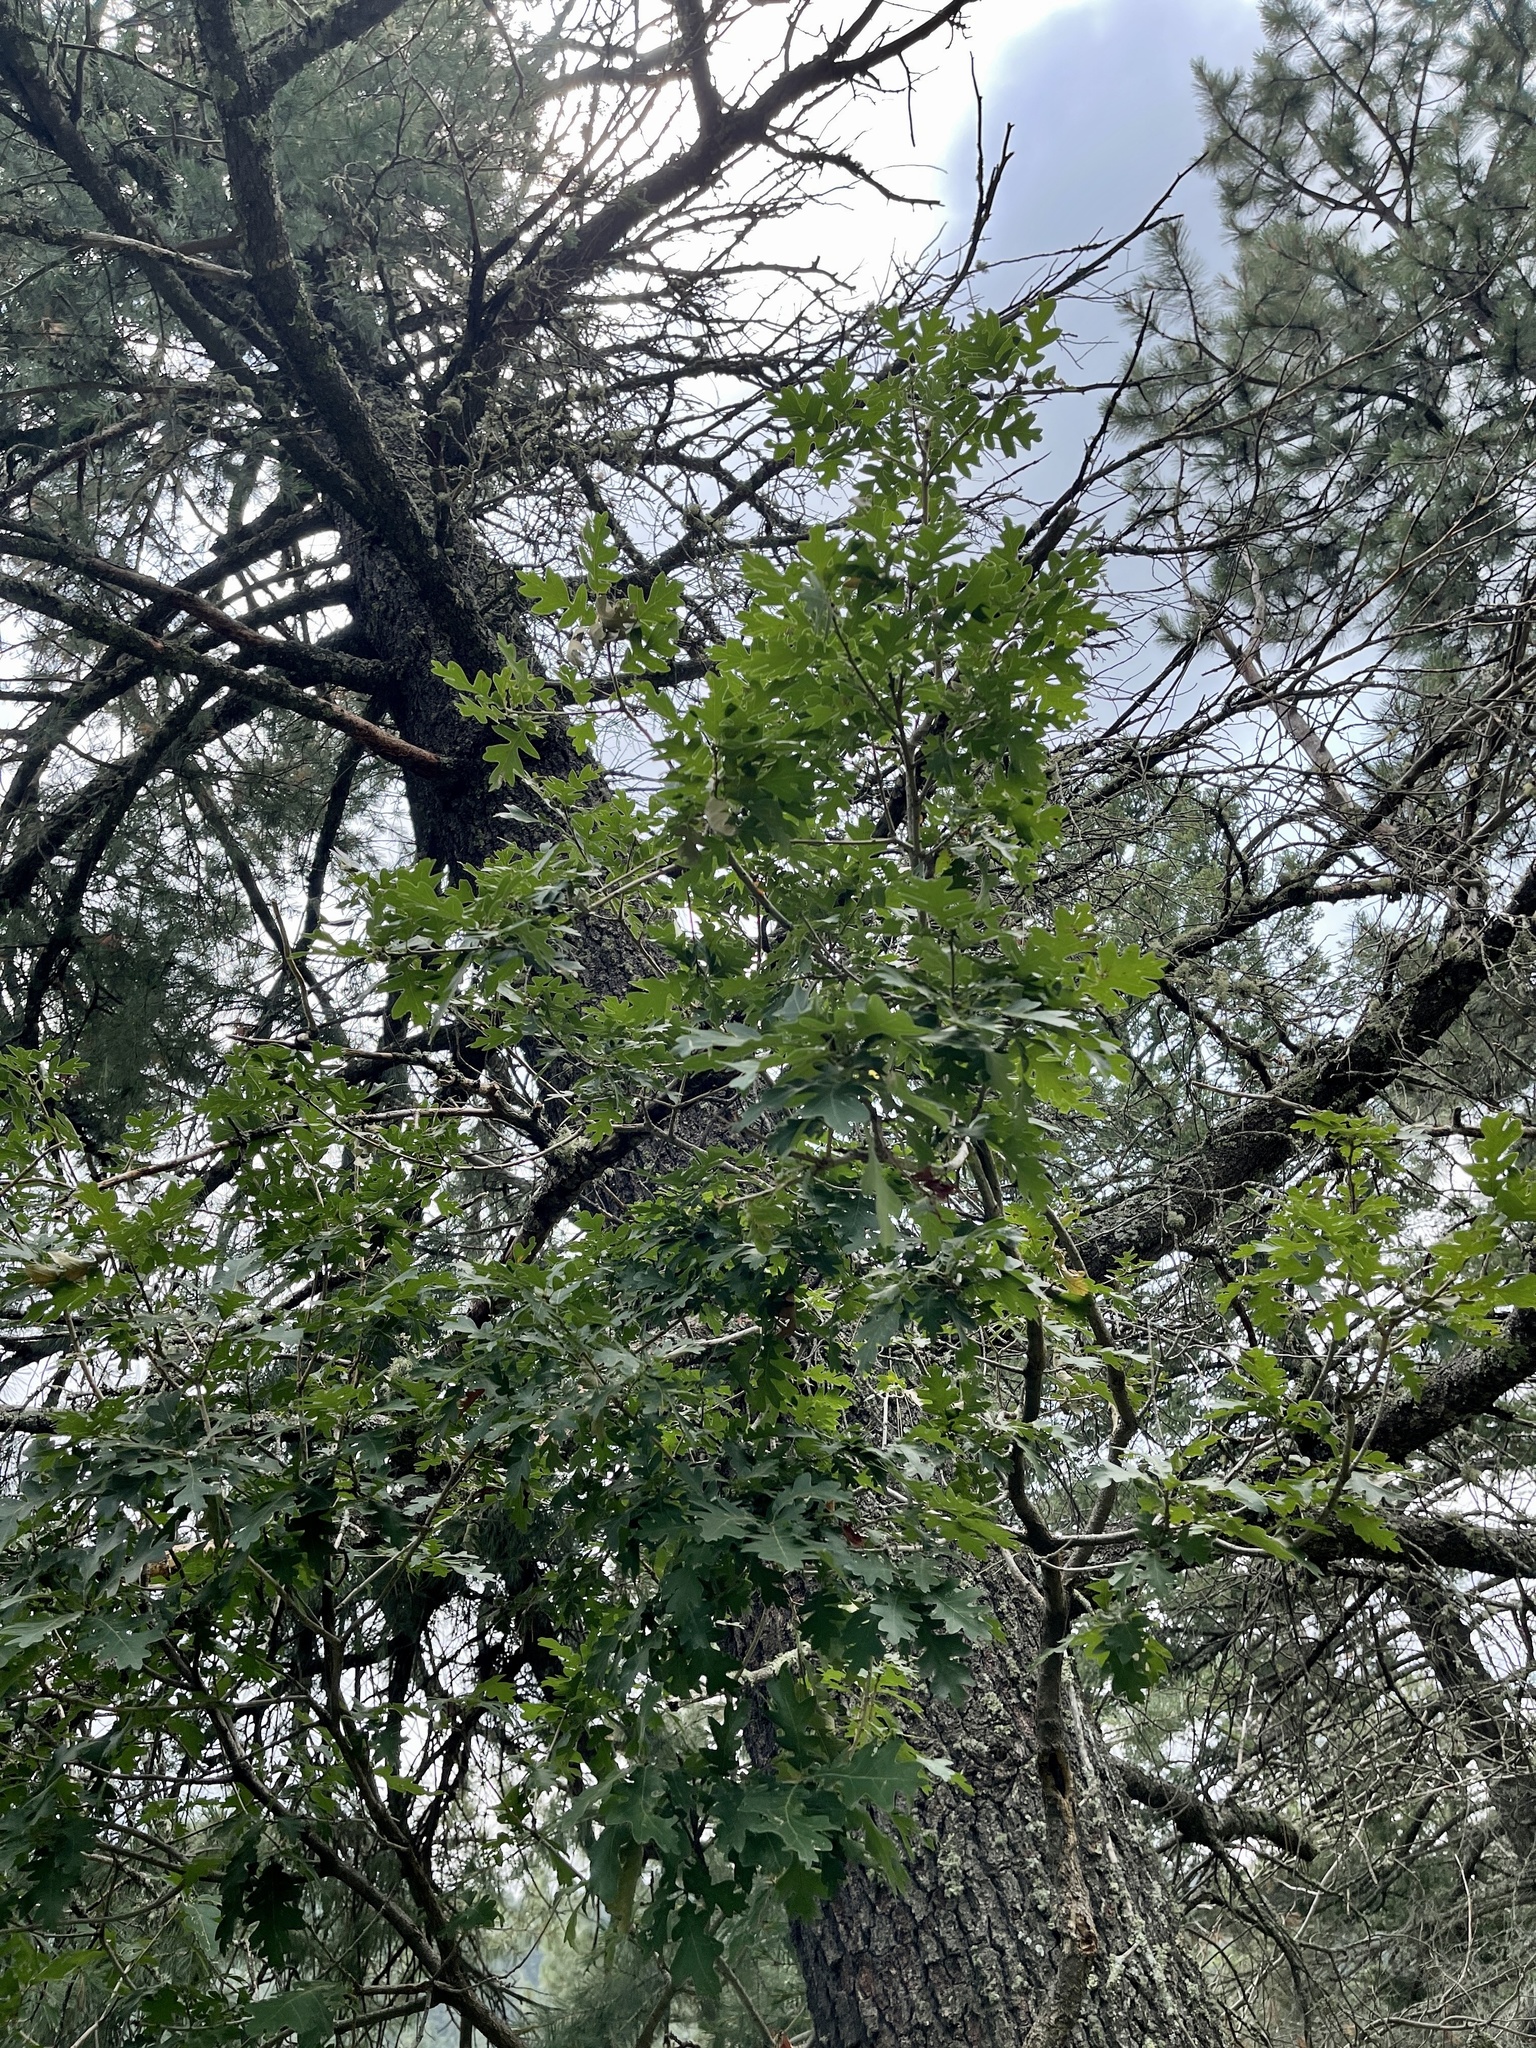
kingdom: Plantae
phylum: Tracheophyta
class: Magnoliopsida
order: Fagales
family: Fagaceae
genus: Quercus
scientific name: Quercus gambelii
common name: Gambel oak
